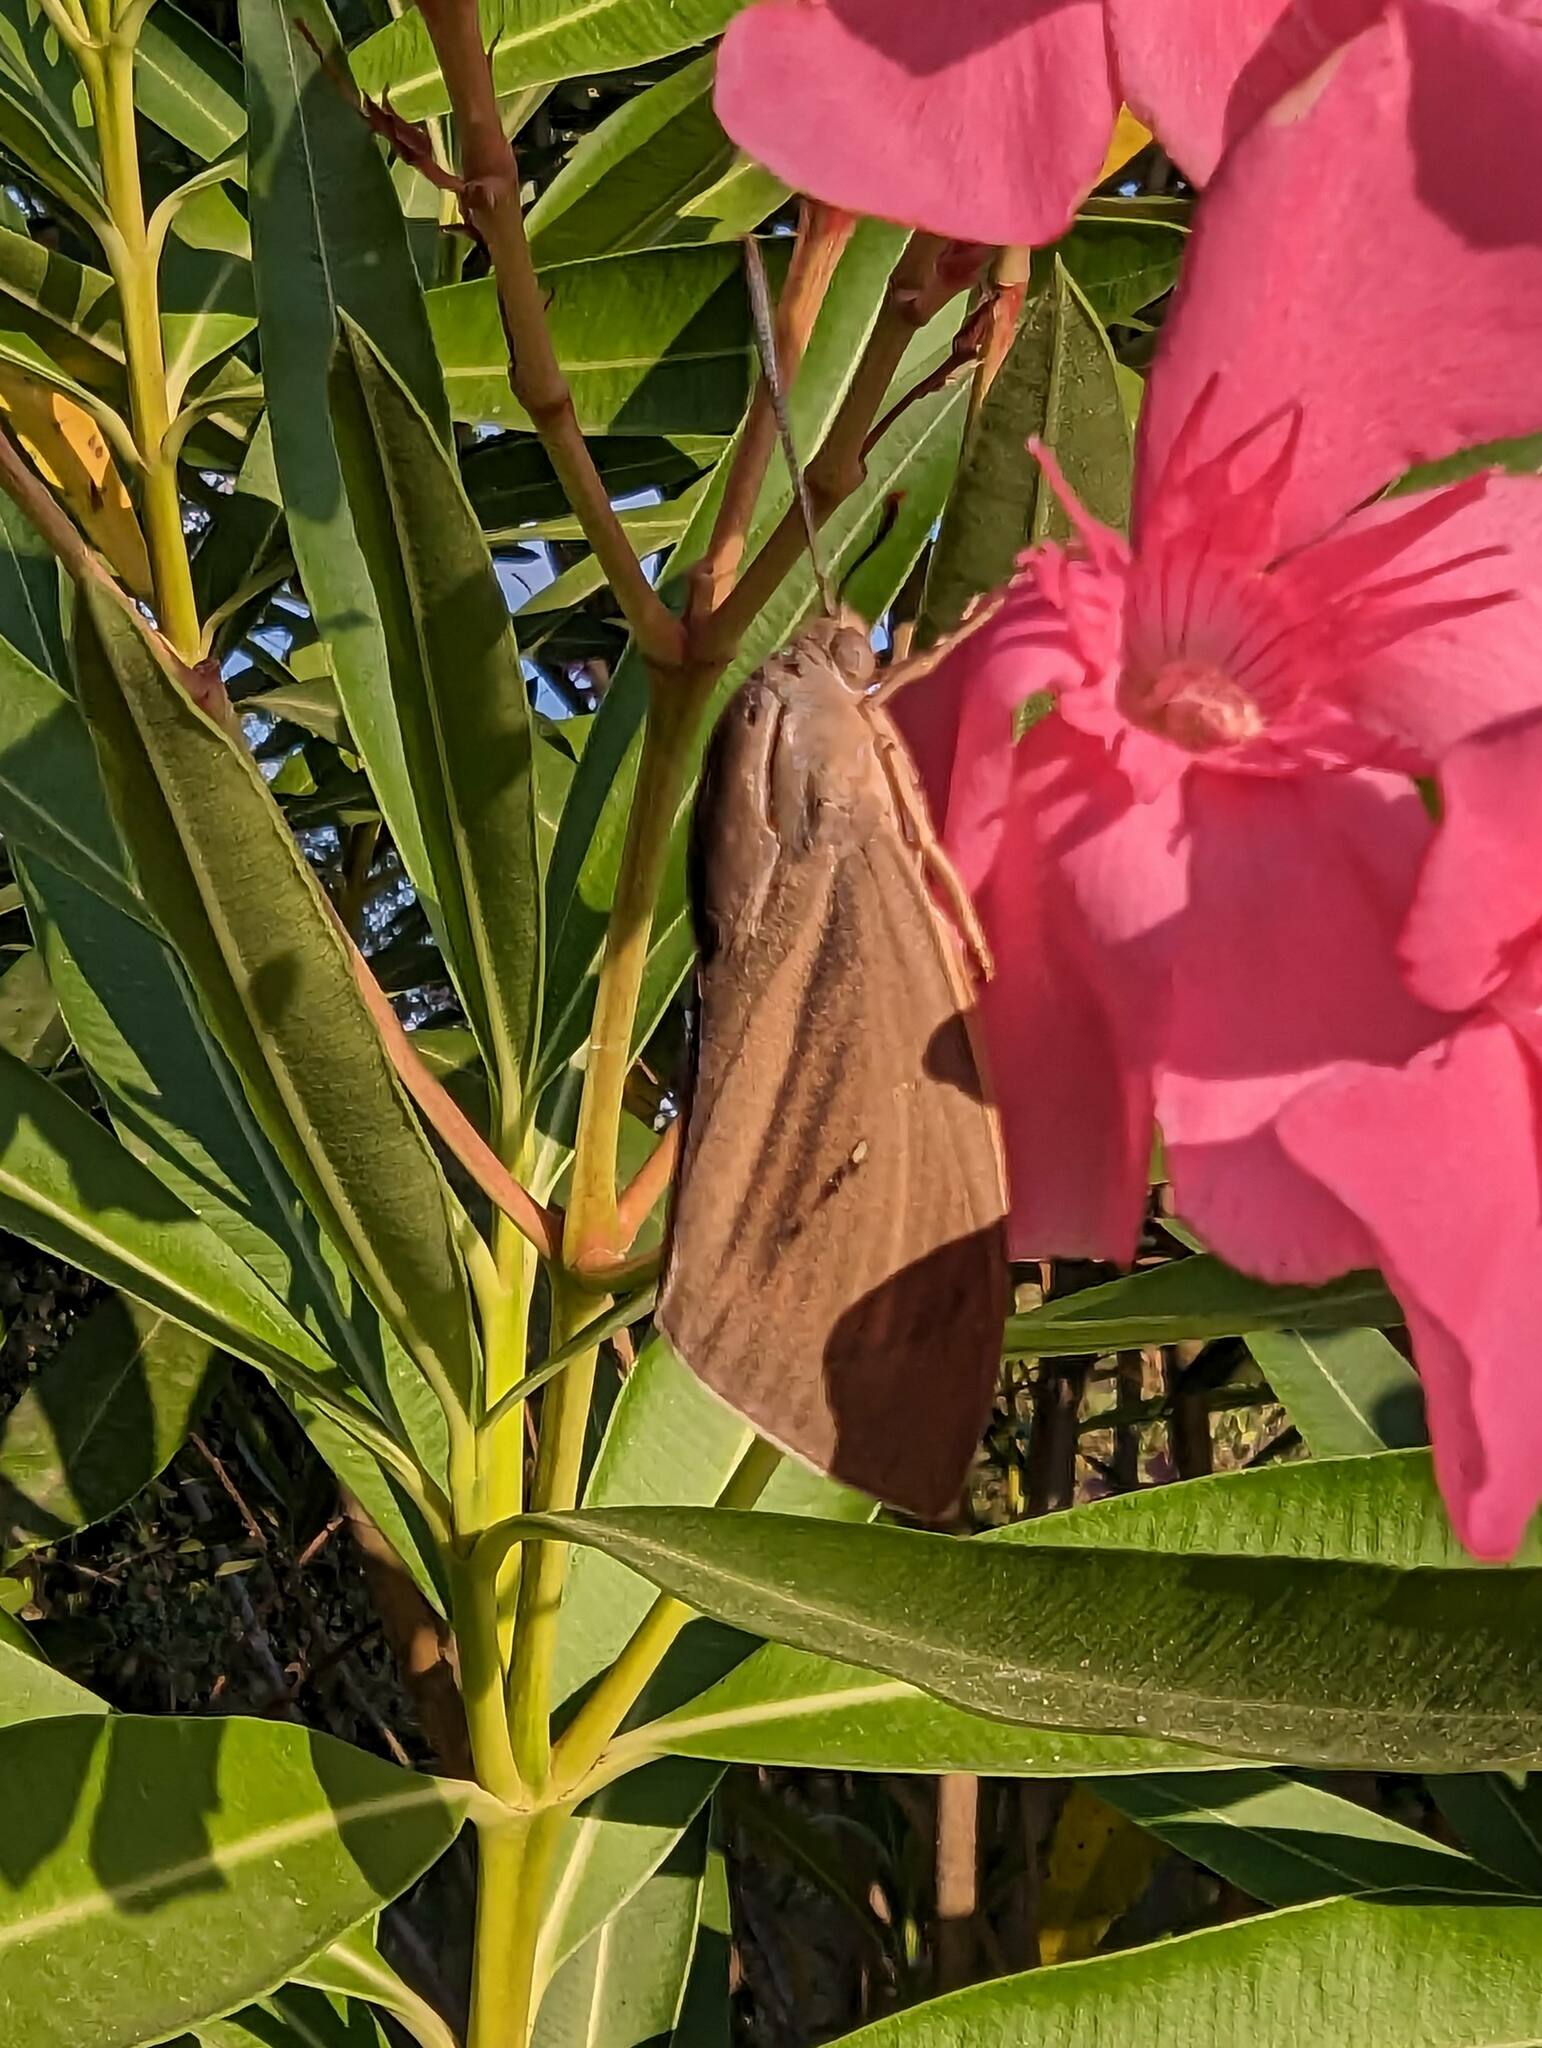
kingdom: Animalia
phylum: Arthropoda
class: Insecta
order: Lepidoptera
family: Castniidae
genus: Paysandisia
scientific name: Paysandisia archon
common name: Palm moth
